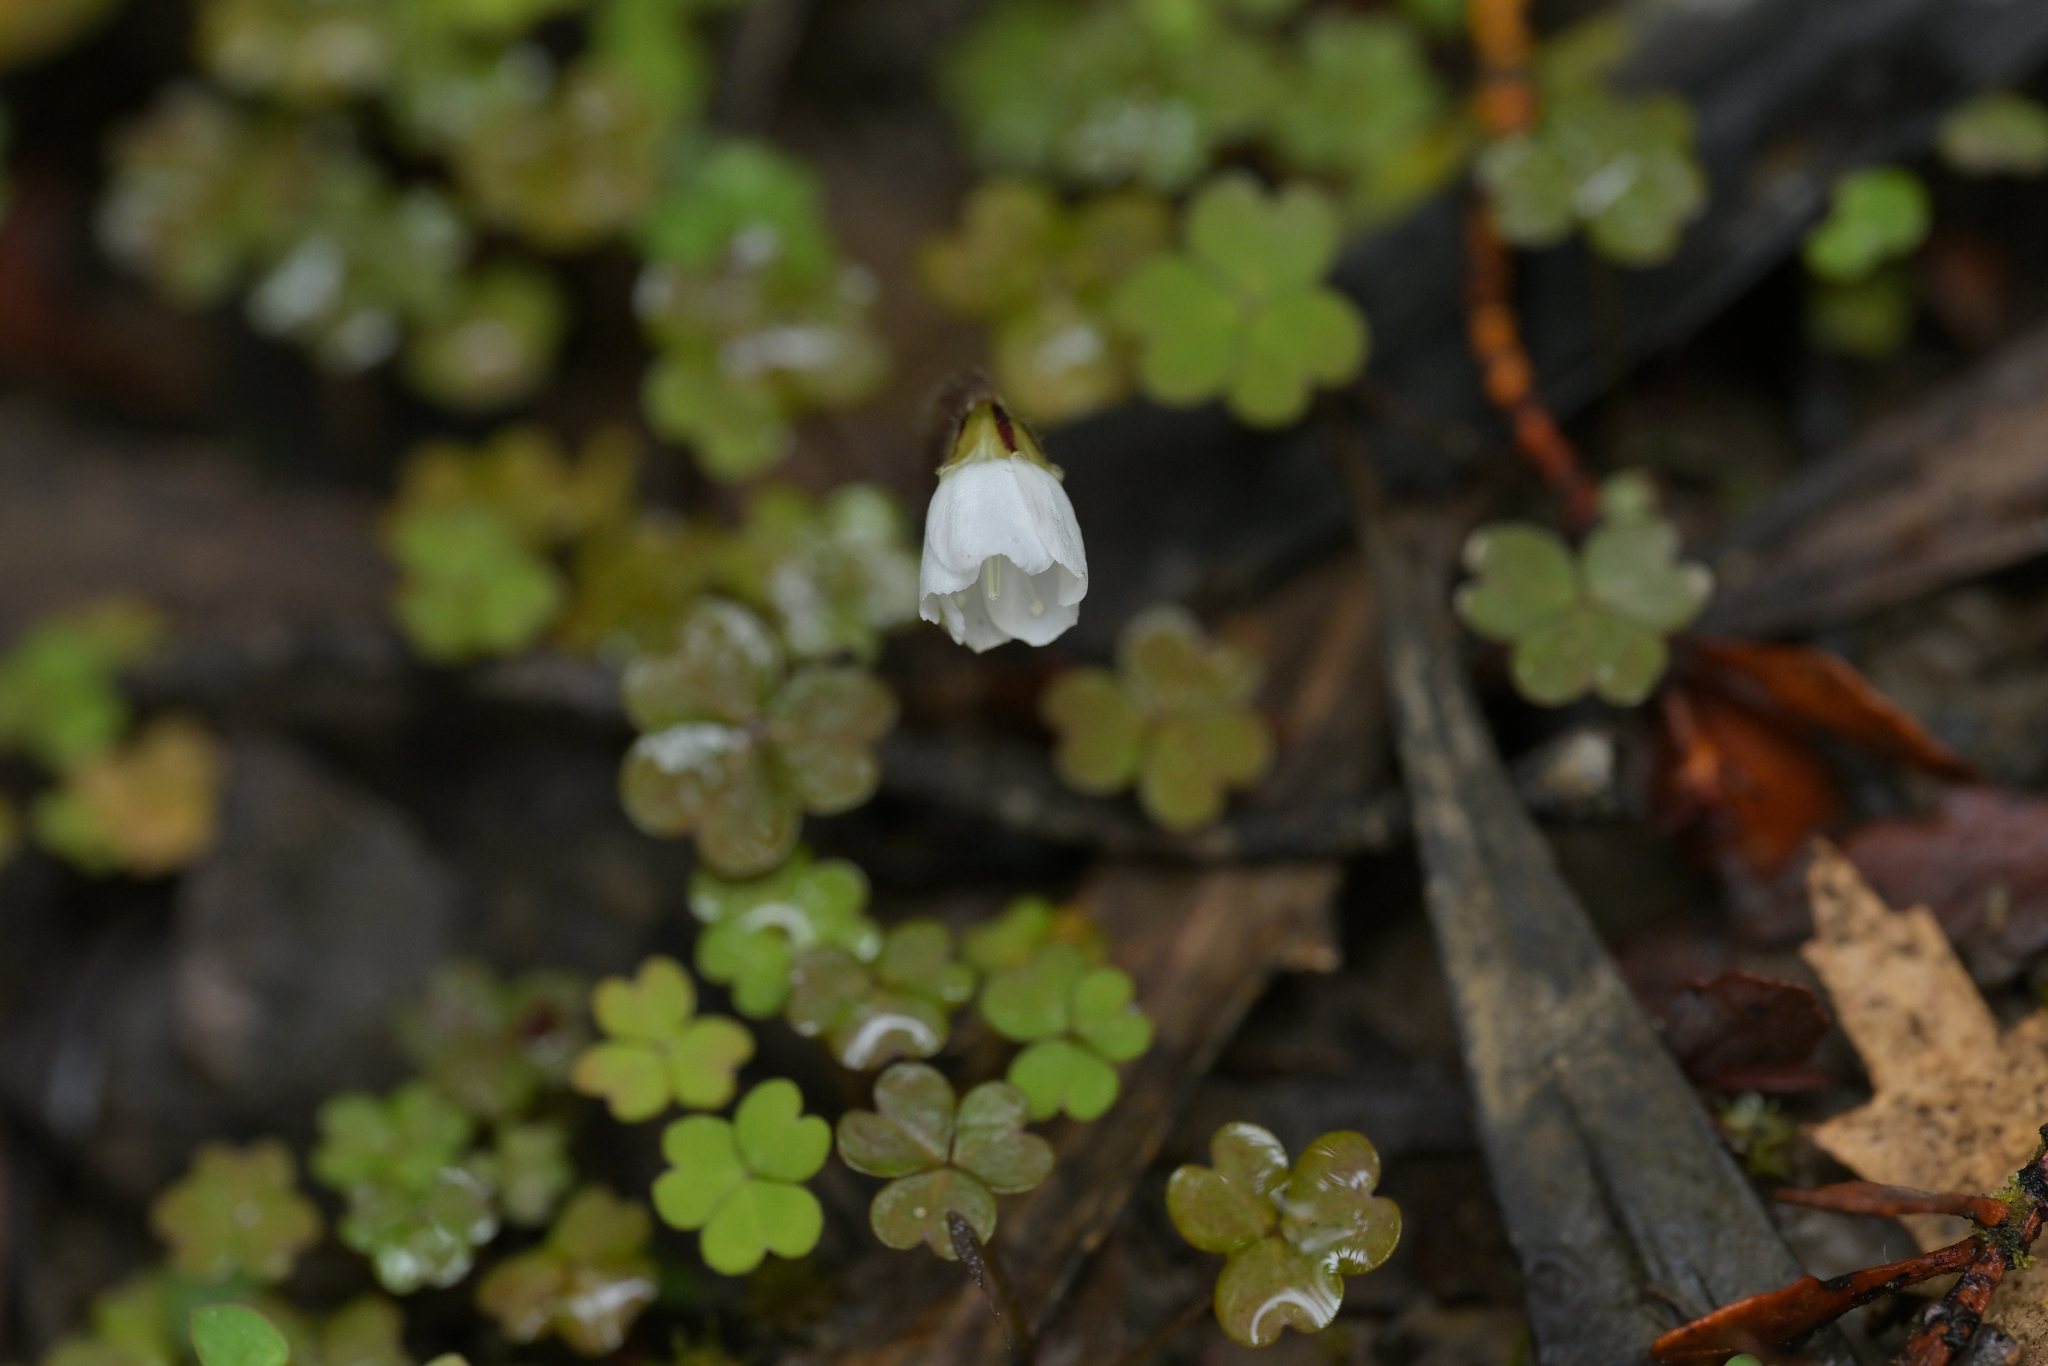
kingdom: Plantae
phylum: Tracheophyta
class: Magnoliopsida
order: Oxalidales
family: Oxalidaceae
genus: Oxalis
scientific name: Oxalis magellanica
